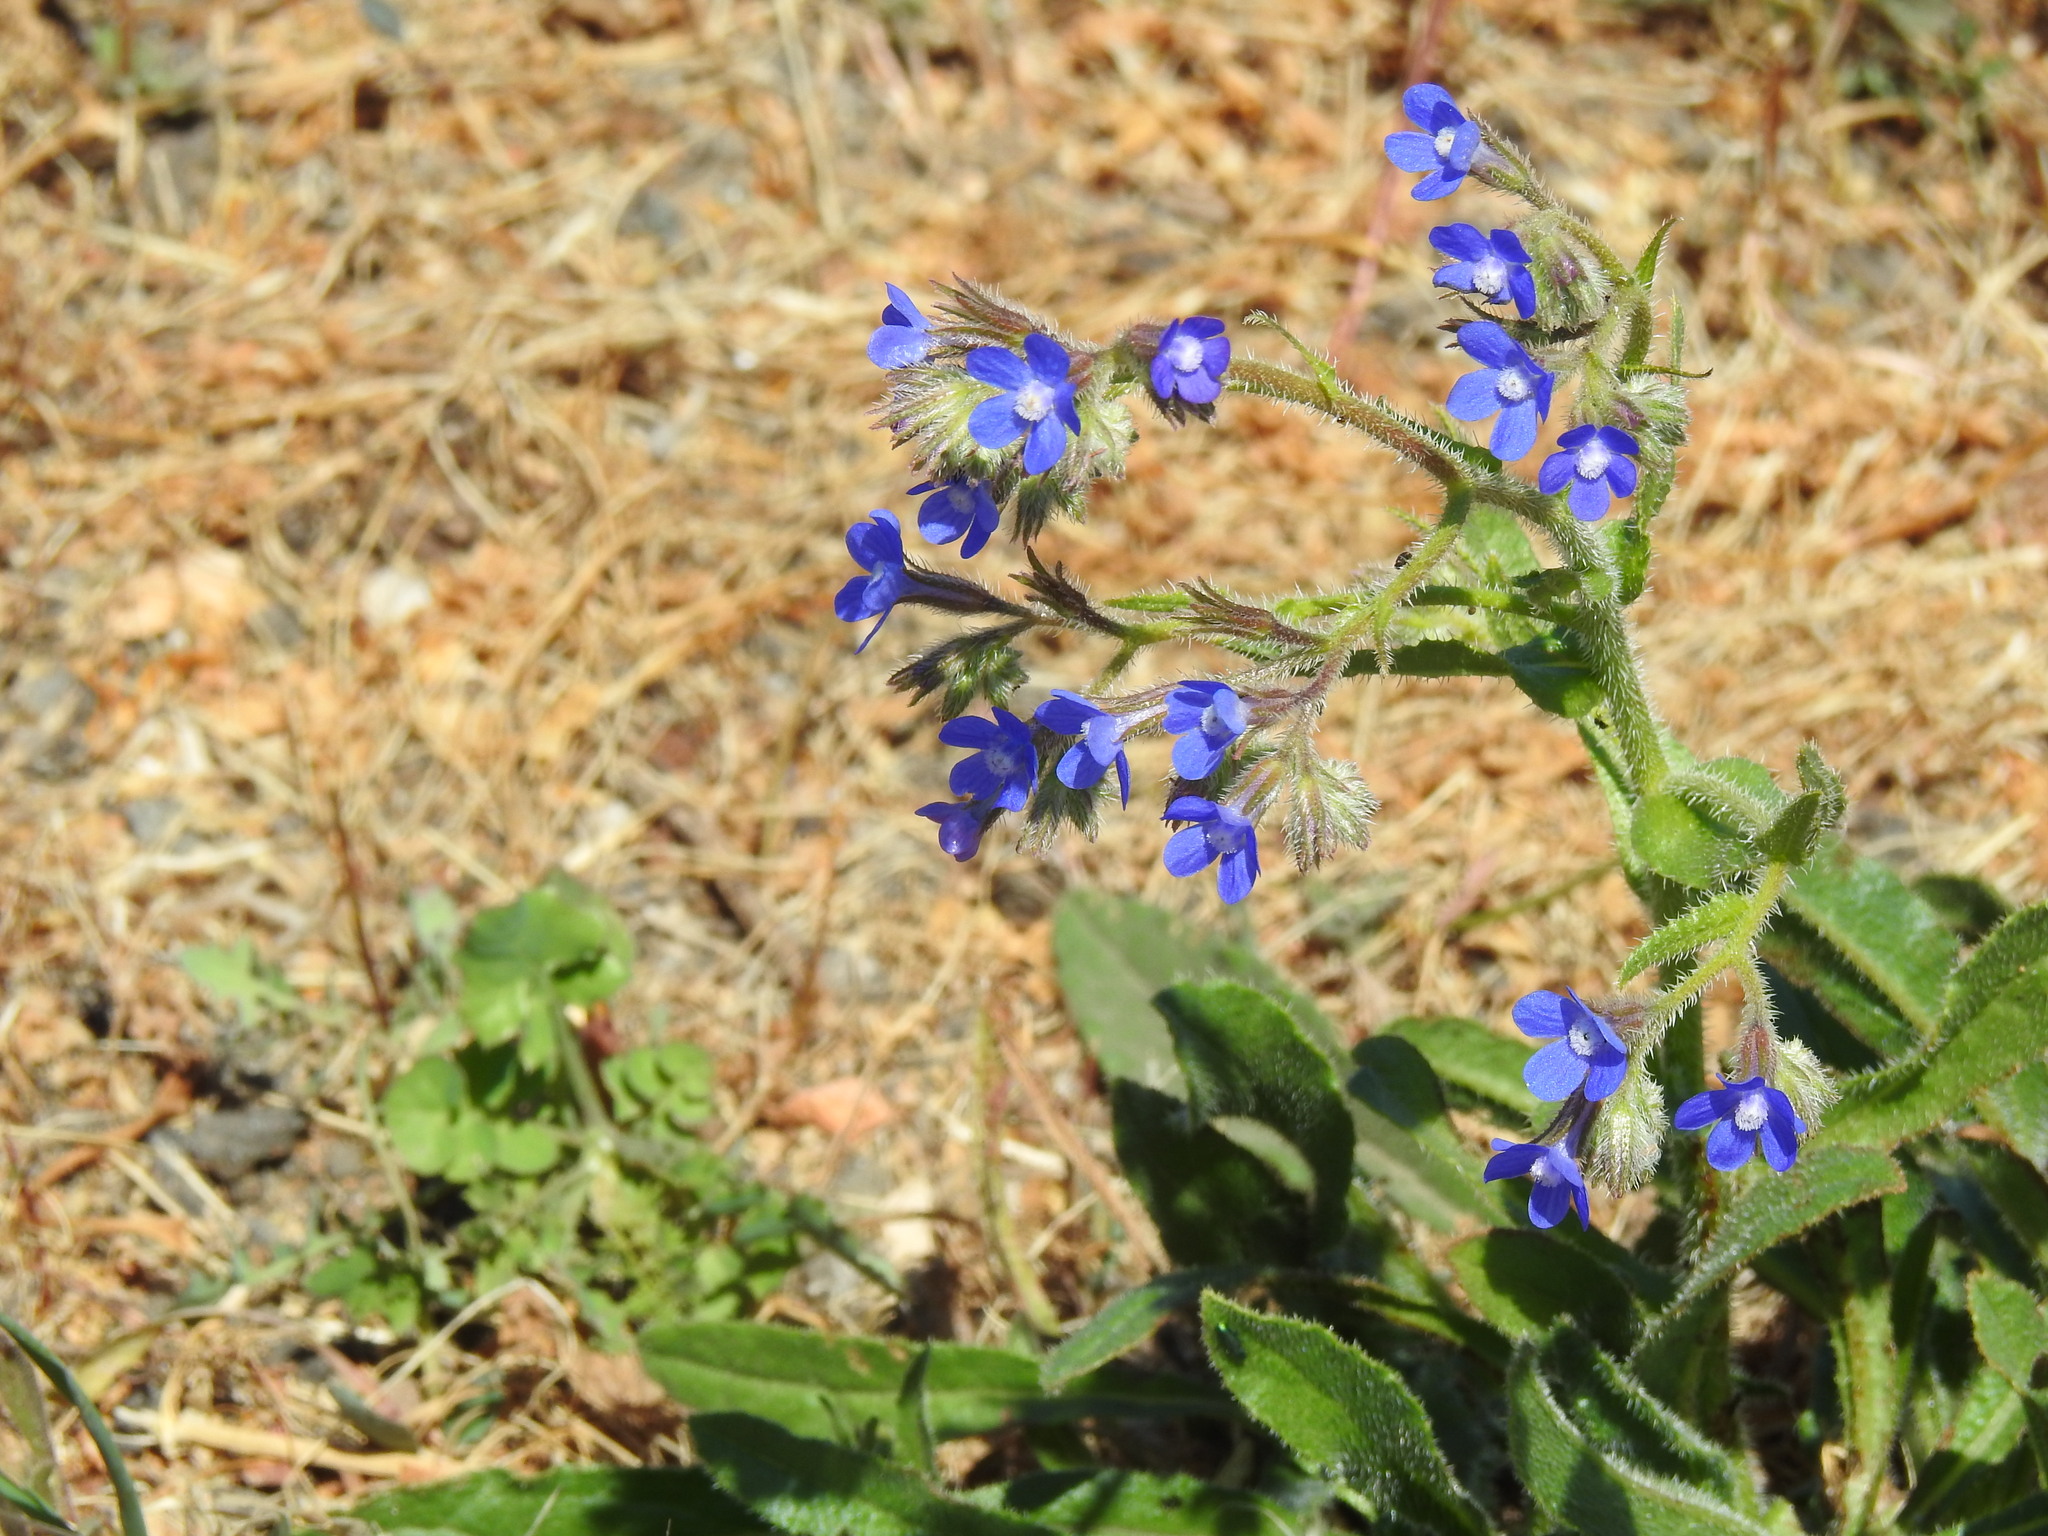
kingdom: Plantae
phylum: Tracheophyta
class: Magnoliopsida
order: Boraginales
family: Boraginaceae
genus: Anchusa
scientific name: Anchusa azurea
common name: Garden anchusa
